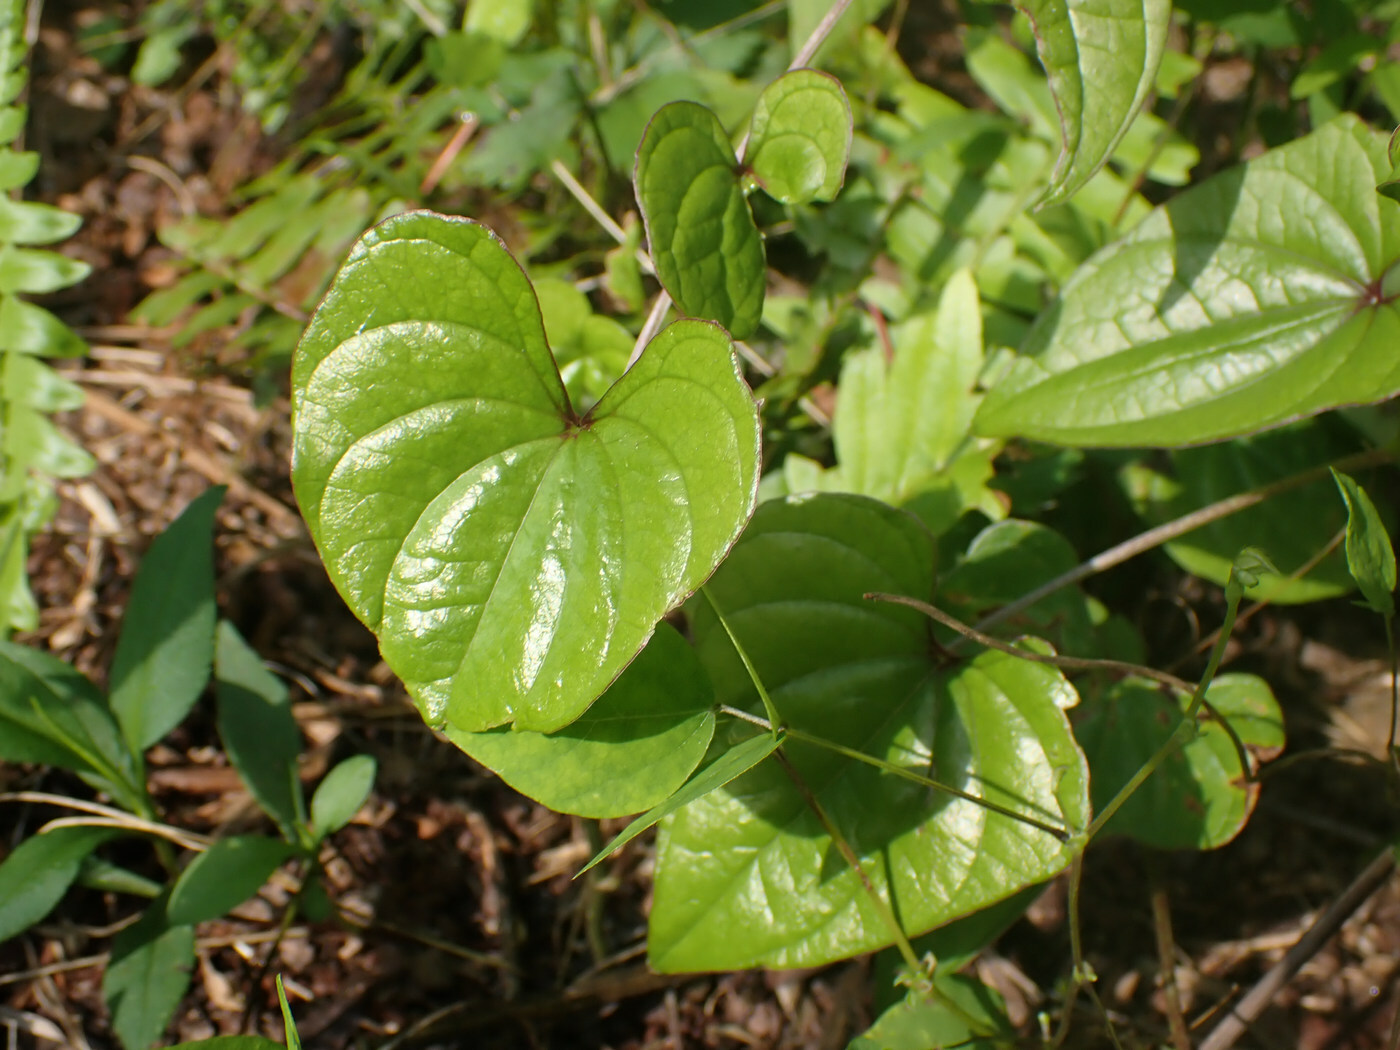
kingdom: Plantae
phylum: Tracheophyta
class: Liliopsida
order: Dioscoreales
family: Dioscoreaceae
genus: Dioscorea
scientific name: Dioscorea polystachya
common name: Chinese yam
